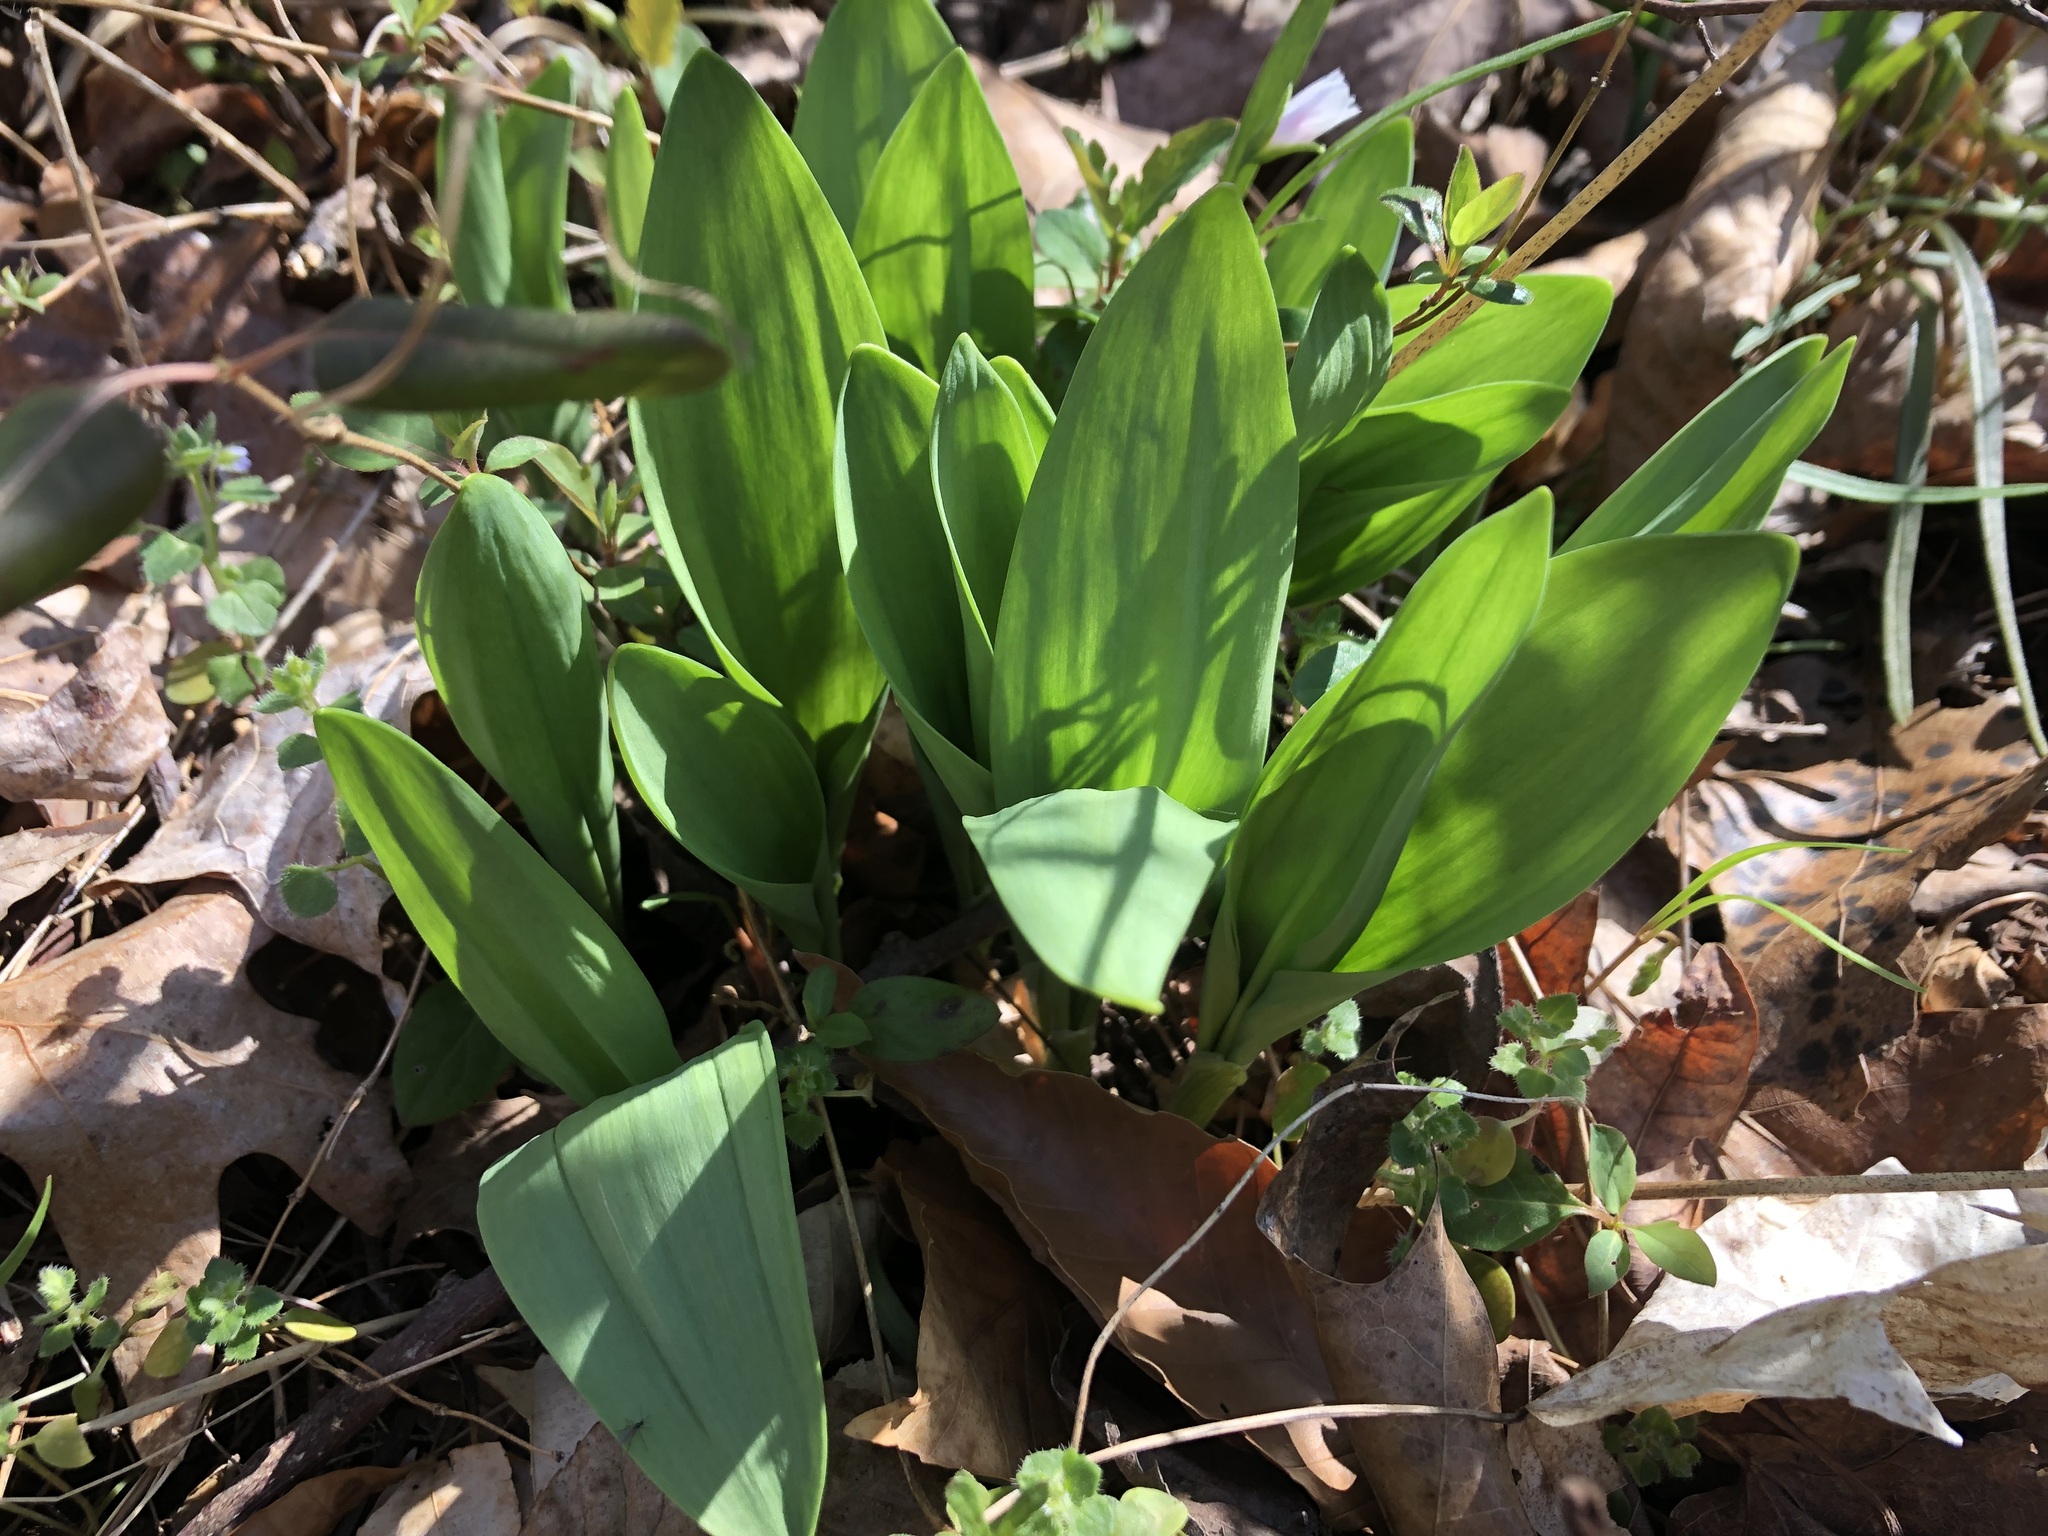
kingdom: Plantae
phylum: Tracheophyta
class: Liliopsida
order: Asparagales
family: Amaryllidaceae
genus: Allium
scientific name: Allium tricoccum
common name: Ramp
